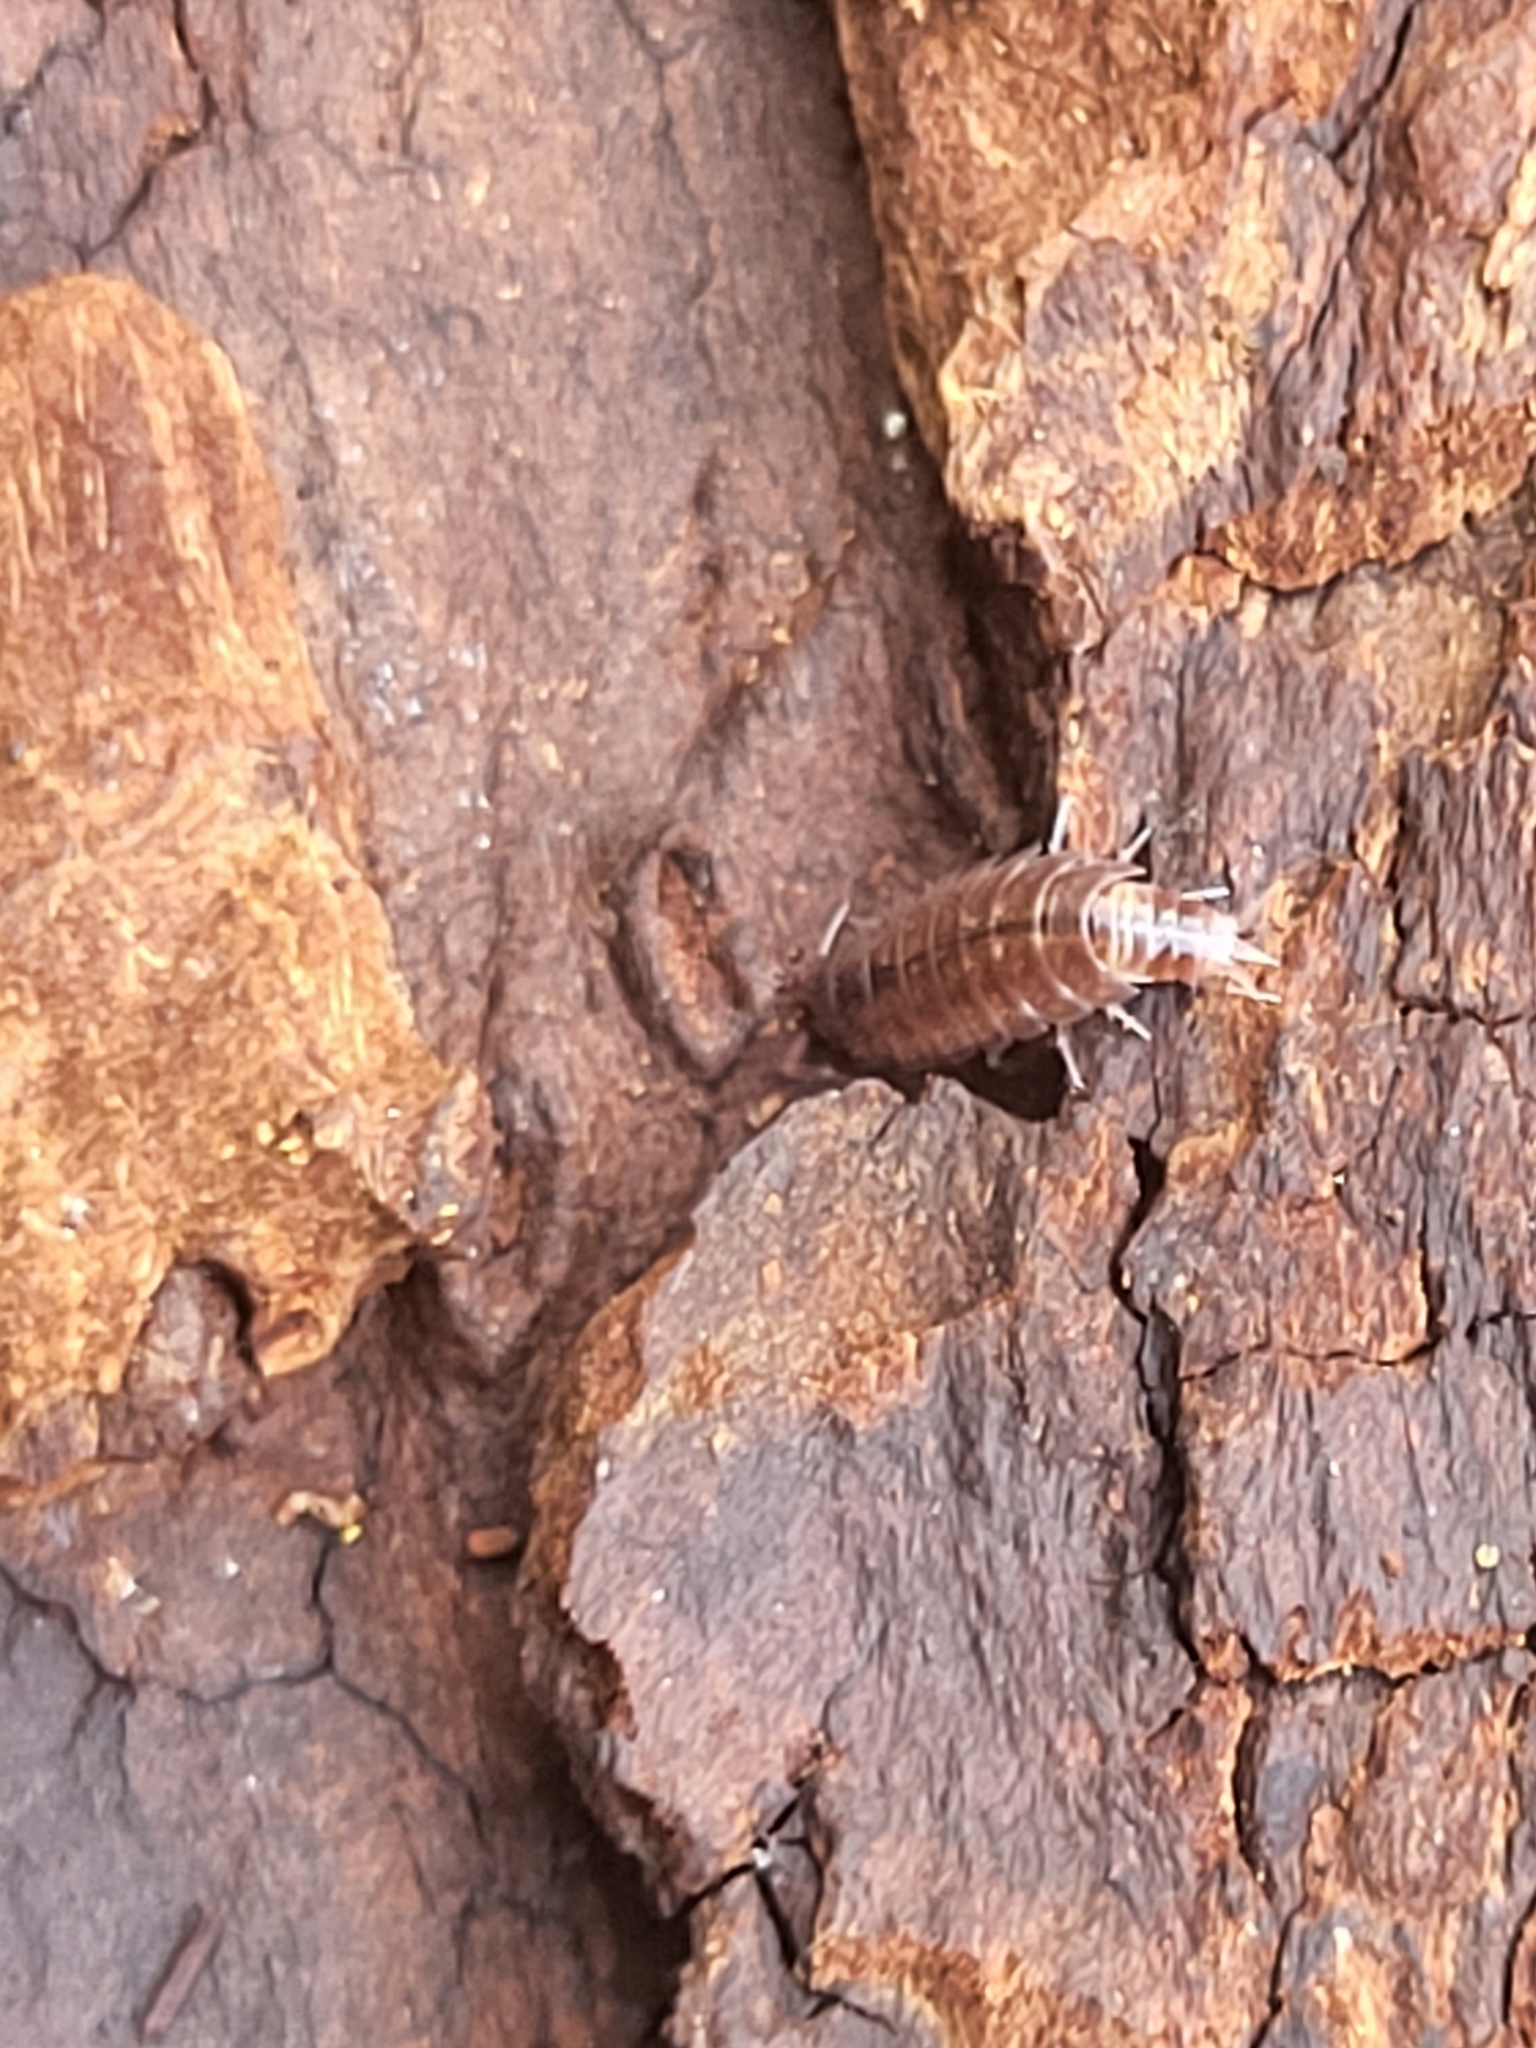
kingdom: Animalia
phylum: Arthropoda
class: Malacostraca
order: Isopoda
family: Trichoniscidae
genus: Hyloniscus
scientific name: Hyloniscus riparius
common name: Isopod
